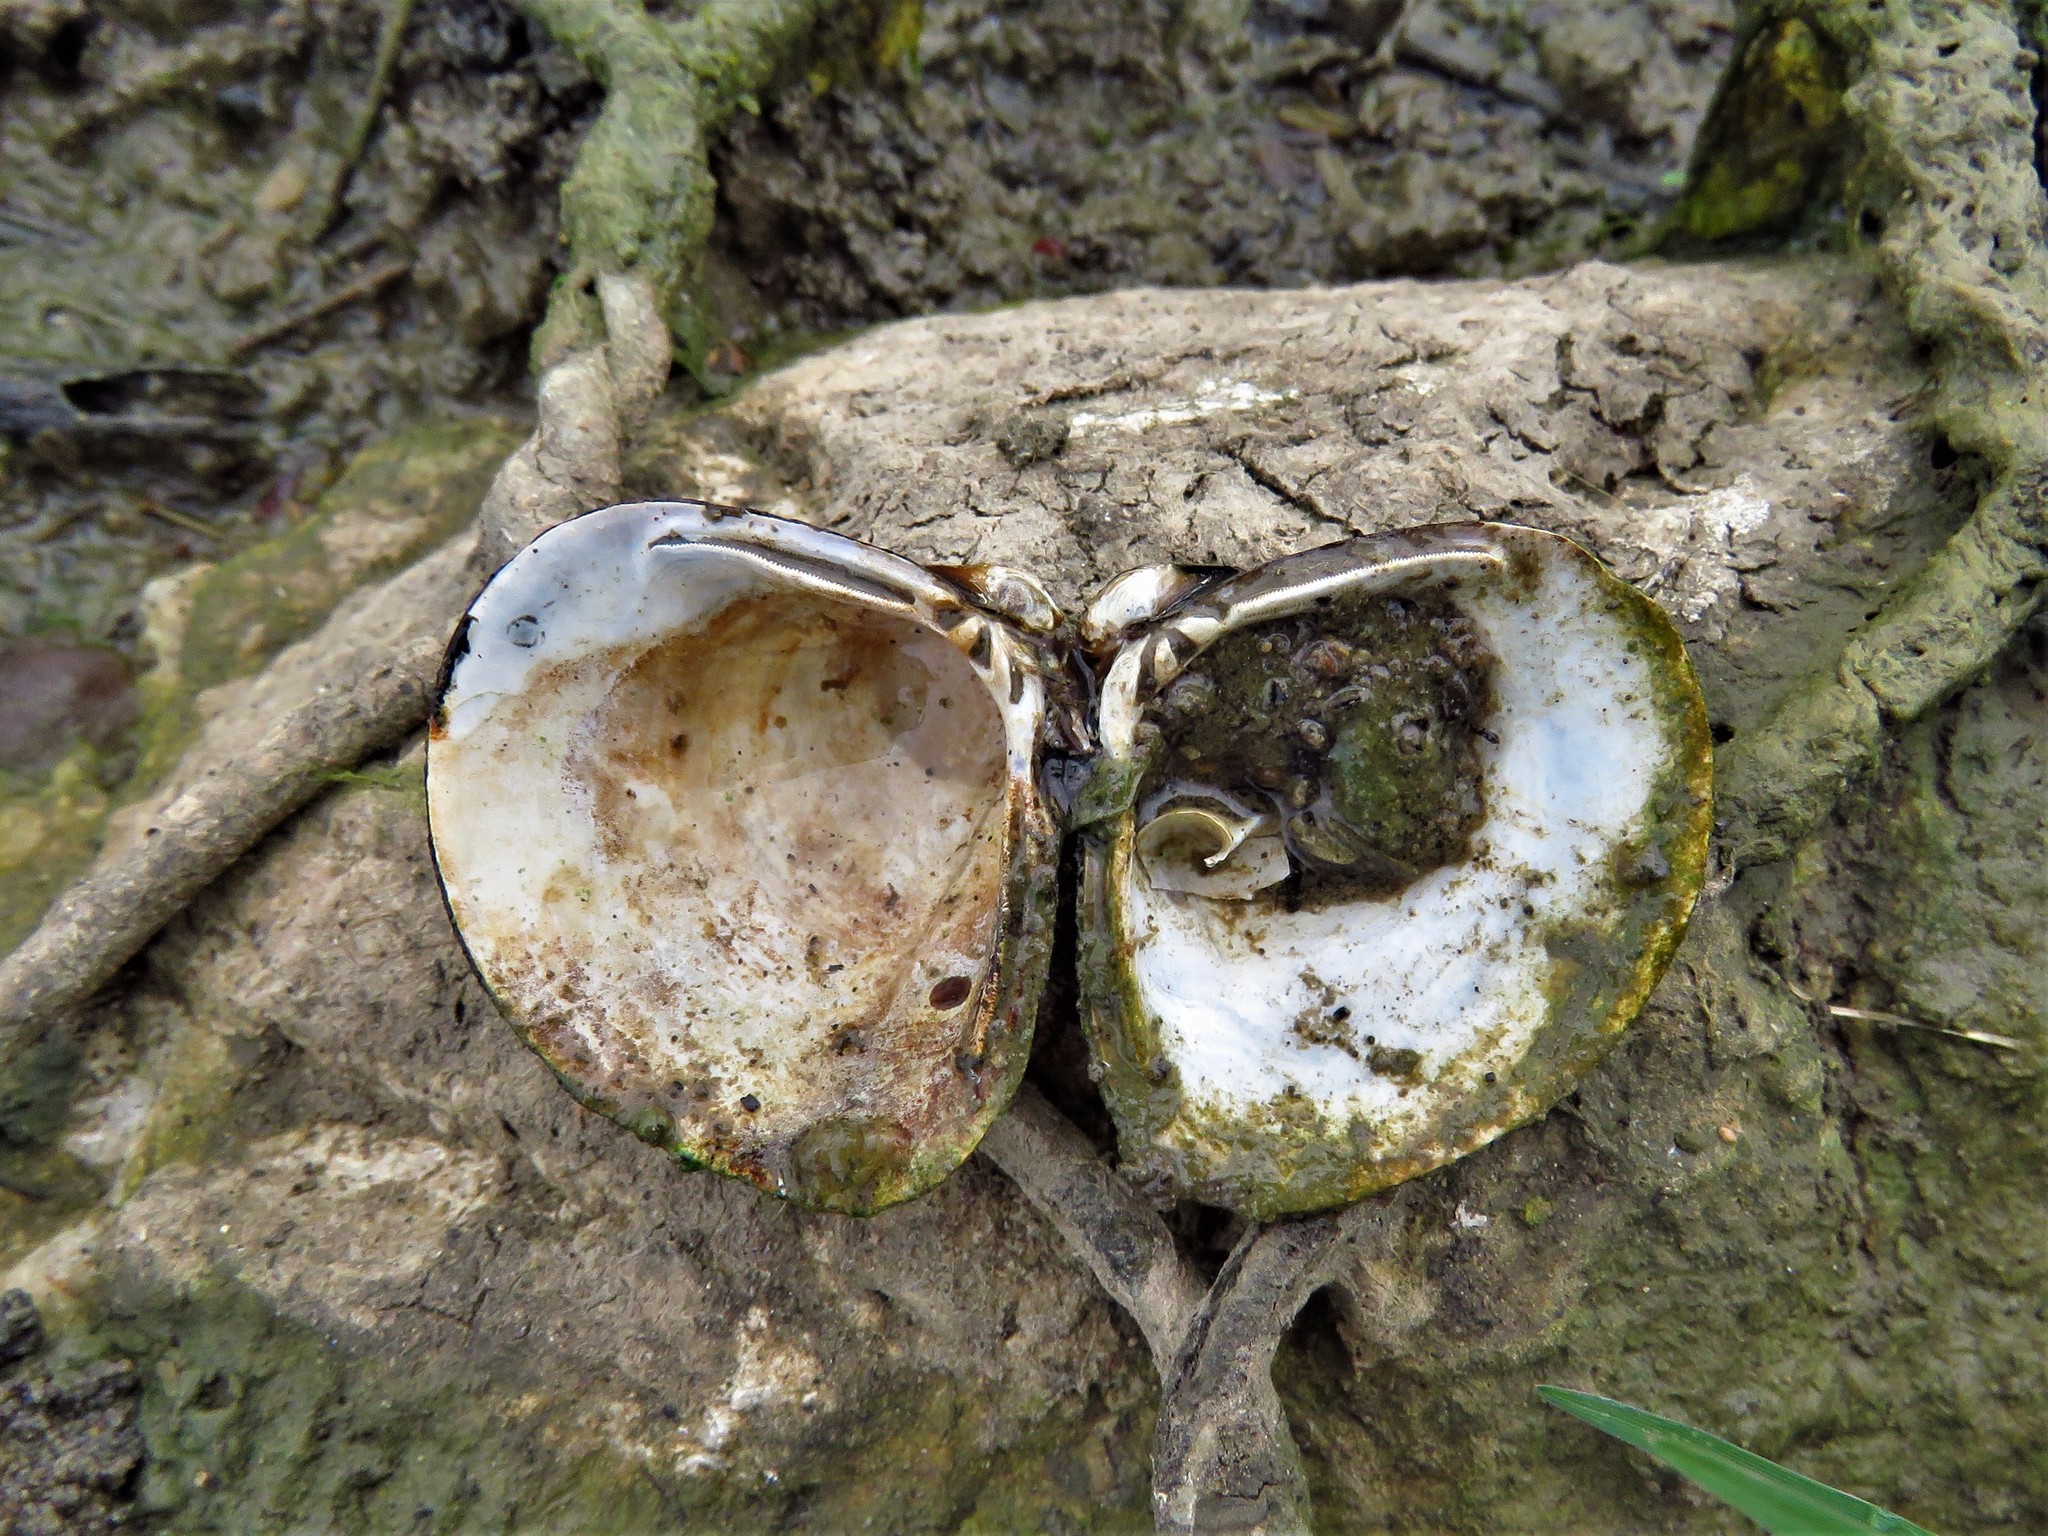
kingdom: Animalia
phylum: Mollusca
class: Bivalvia
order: Venerida
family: Cyrenidae
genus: Corbicula
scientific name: Corbicula fluminea
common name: Asian clam
